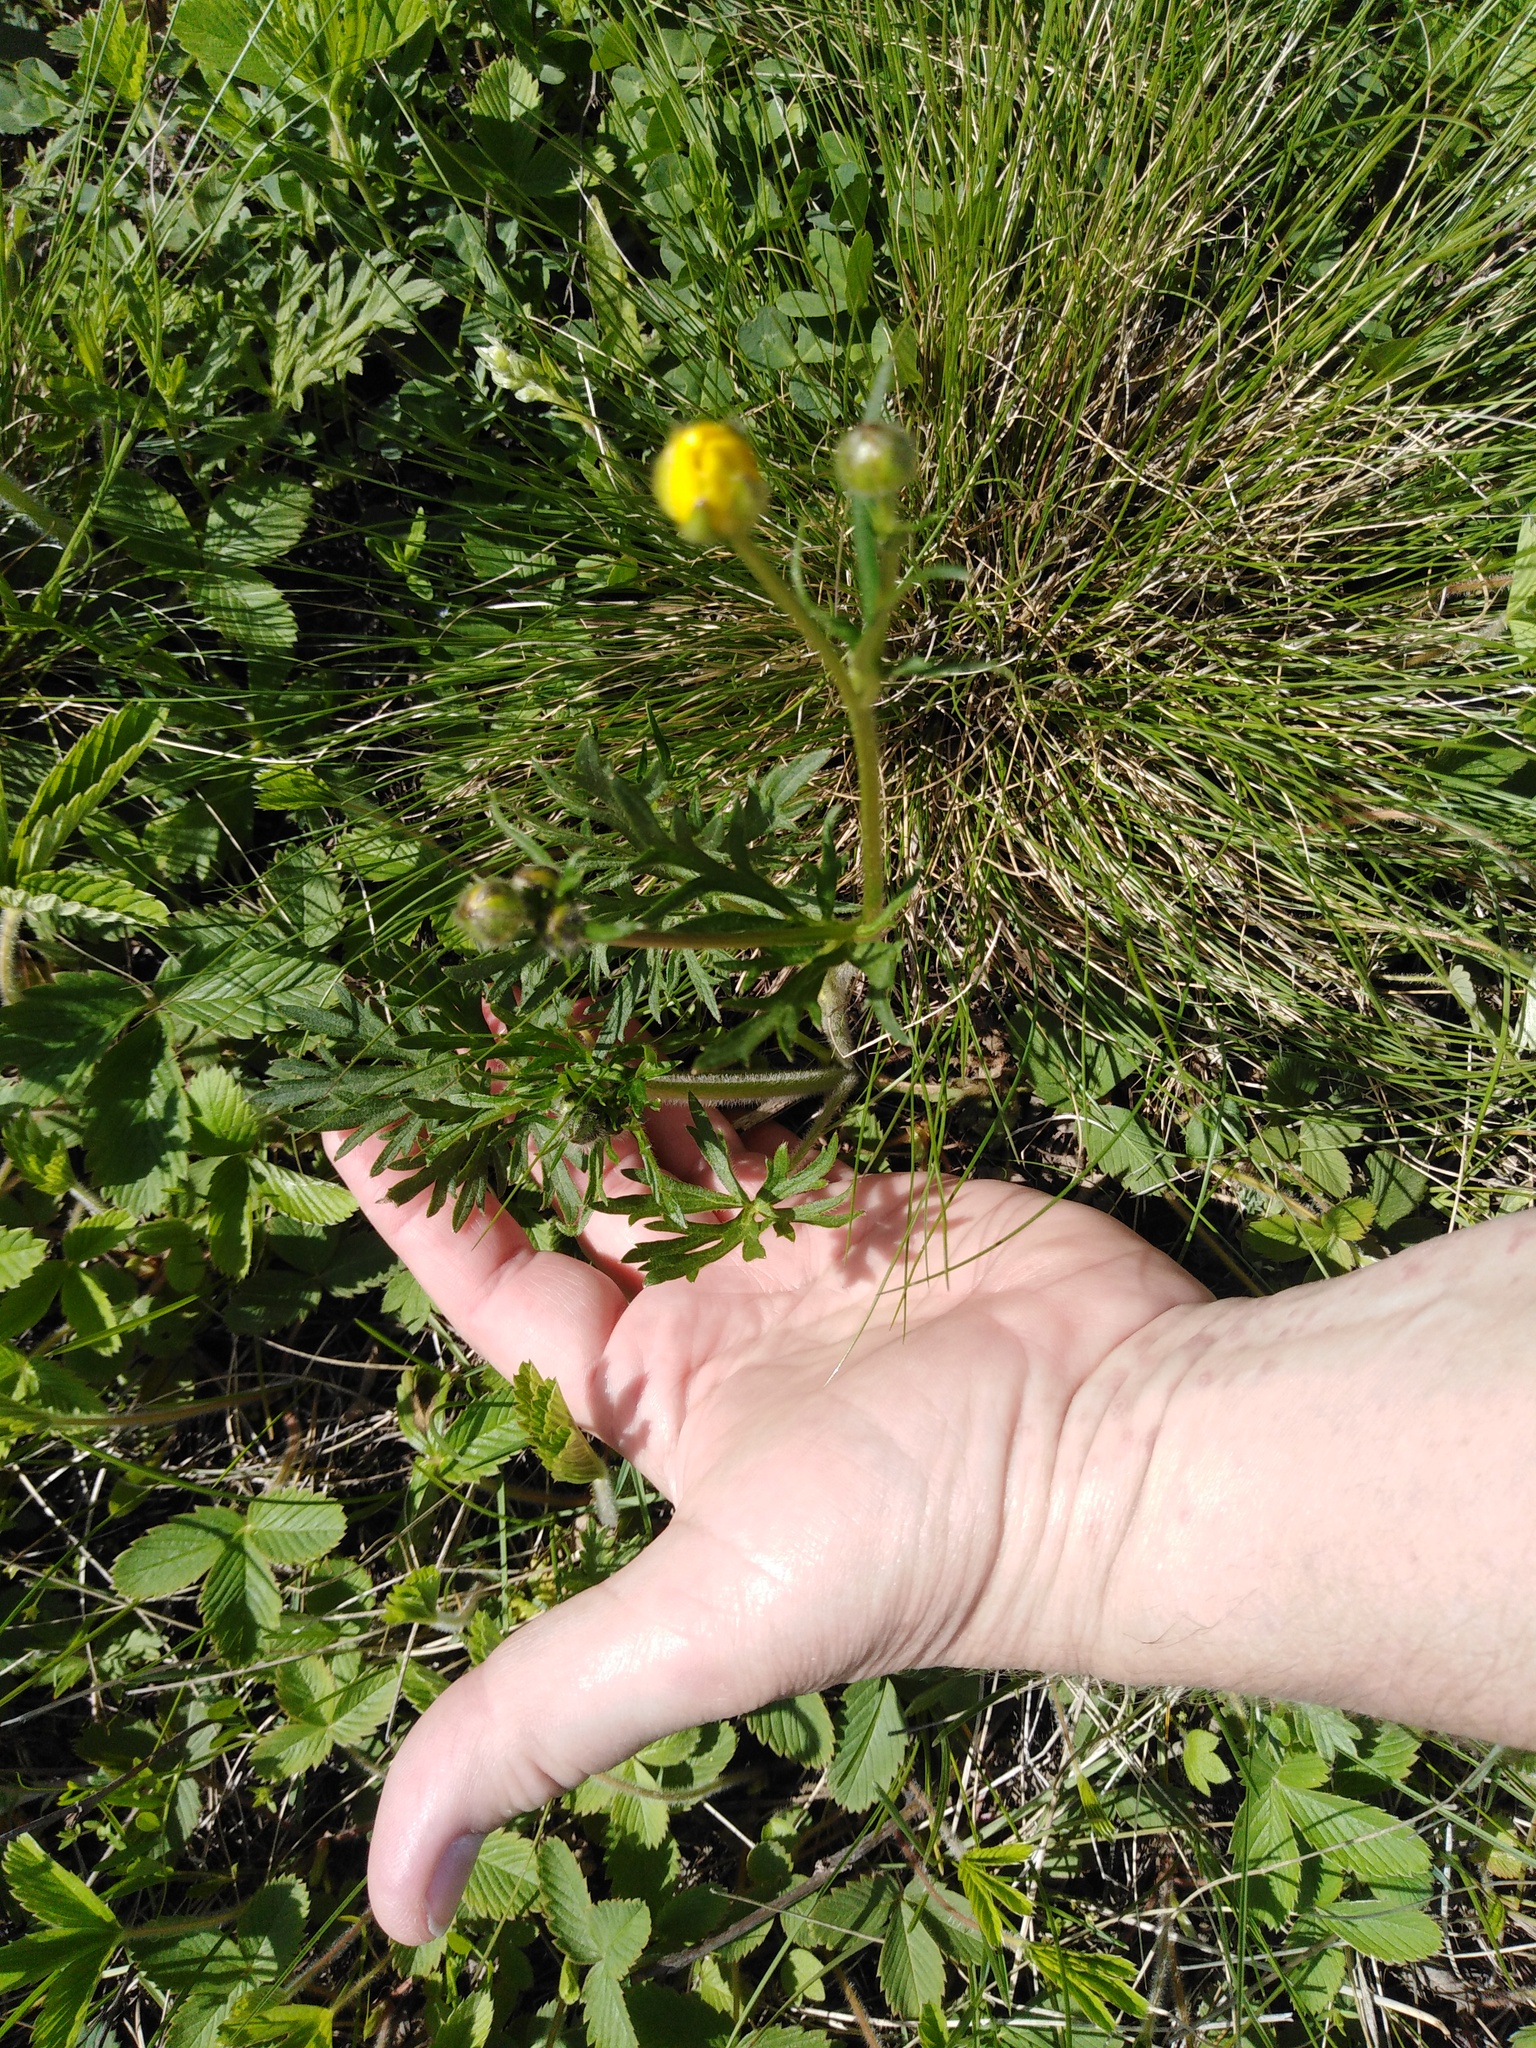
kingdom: Plantae
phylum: Tracheophyta
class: Magnoliopsida
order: Ranunculales
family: Ranunculaceae
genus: Ranunculus
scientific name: Ranunculus polyanthemos
